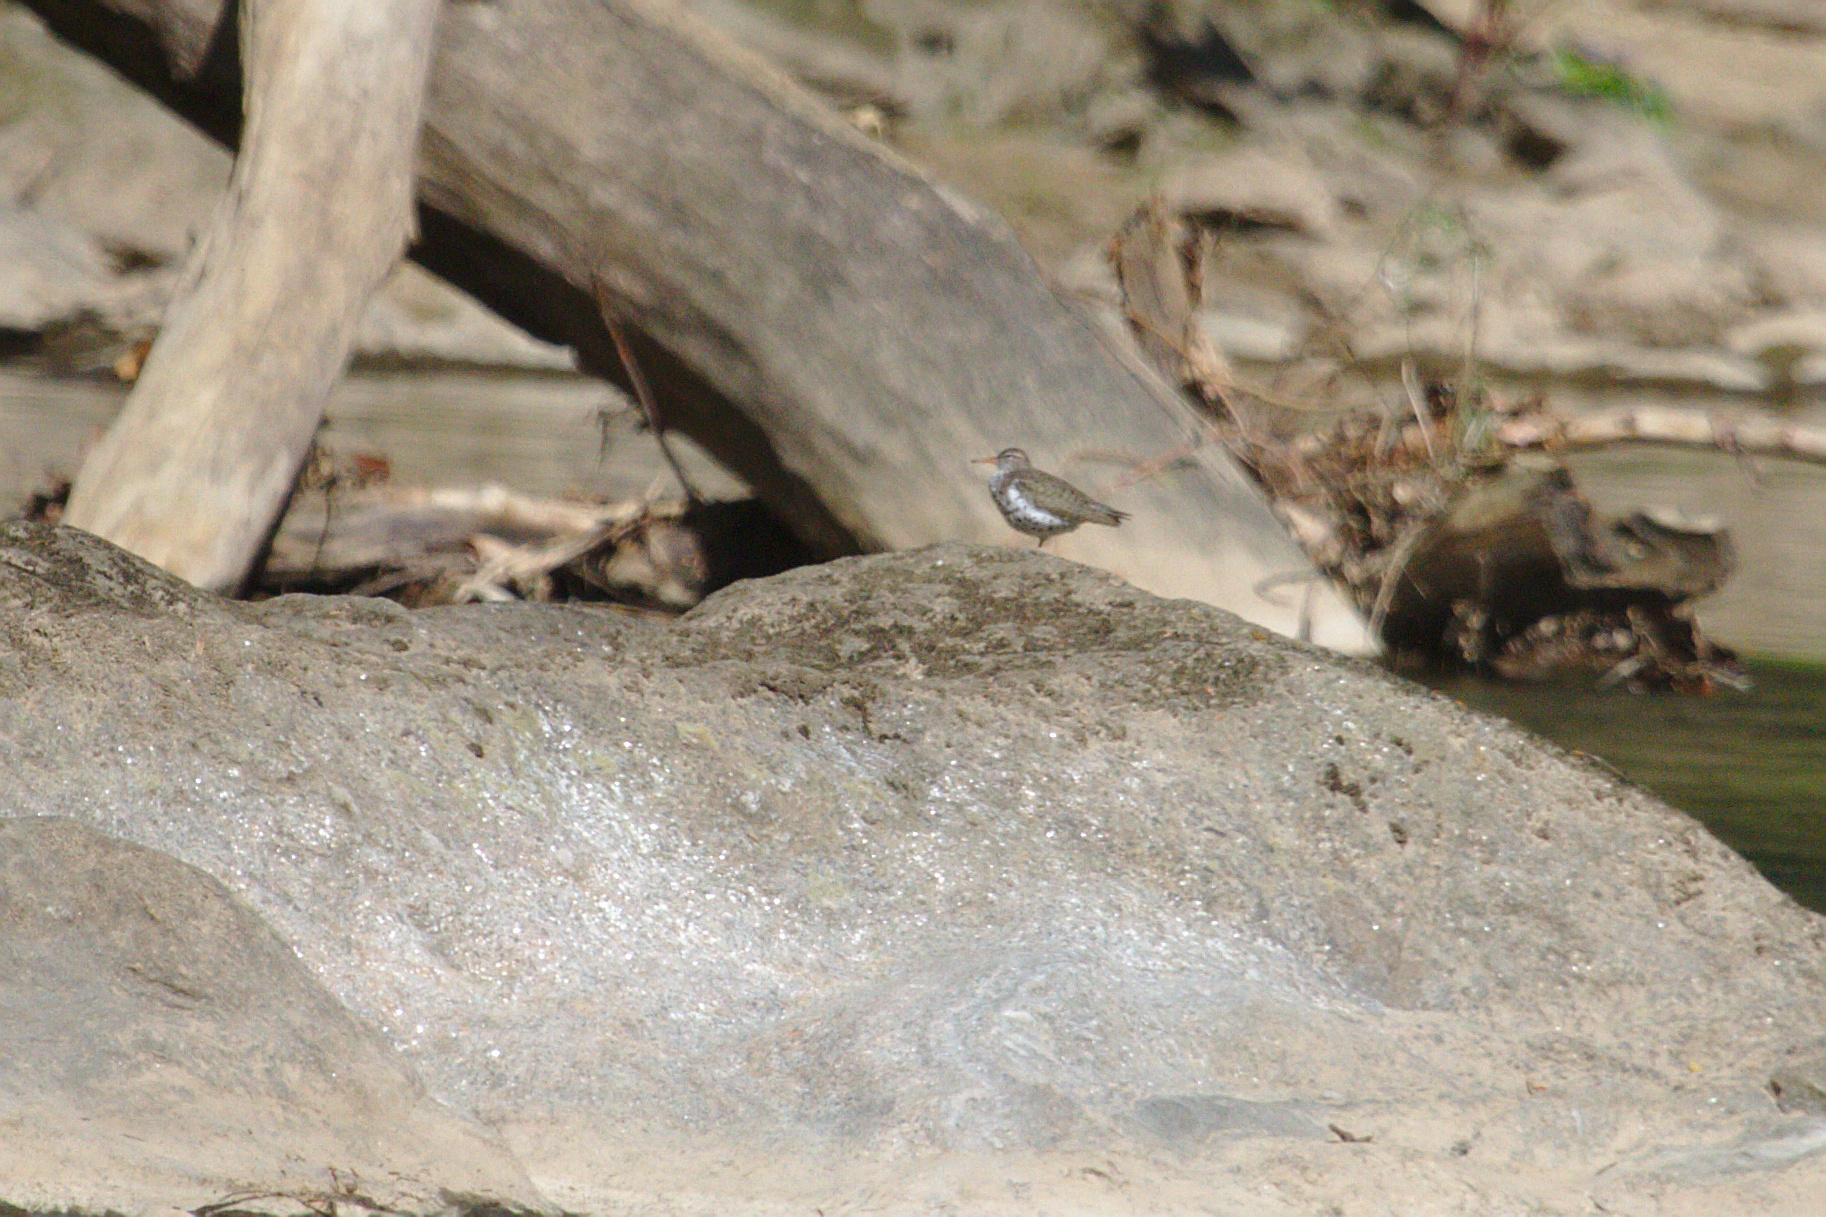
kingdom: Animalia
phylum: Chordata
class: Aves
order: Charadriiformes
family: Scolopacidae
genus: Actitis
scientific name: Actitis macularius
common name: Spotted sandpiper
